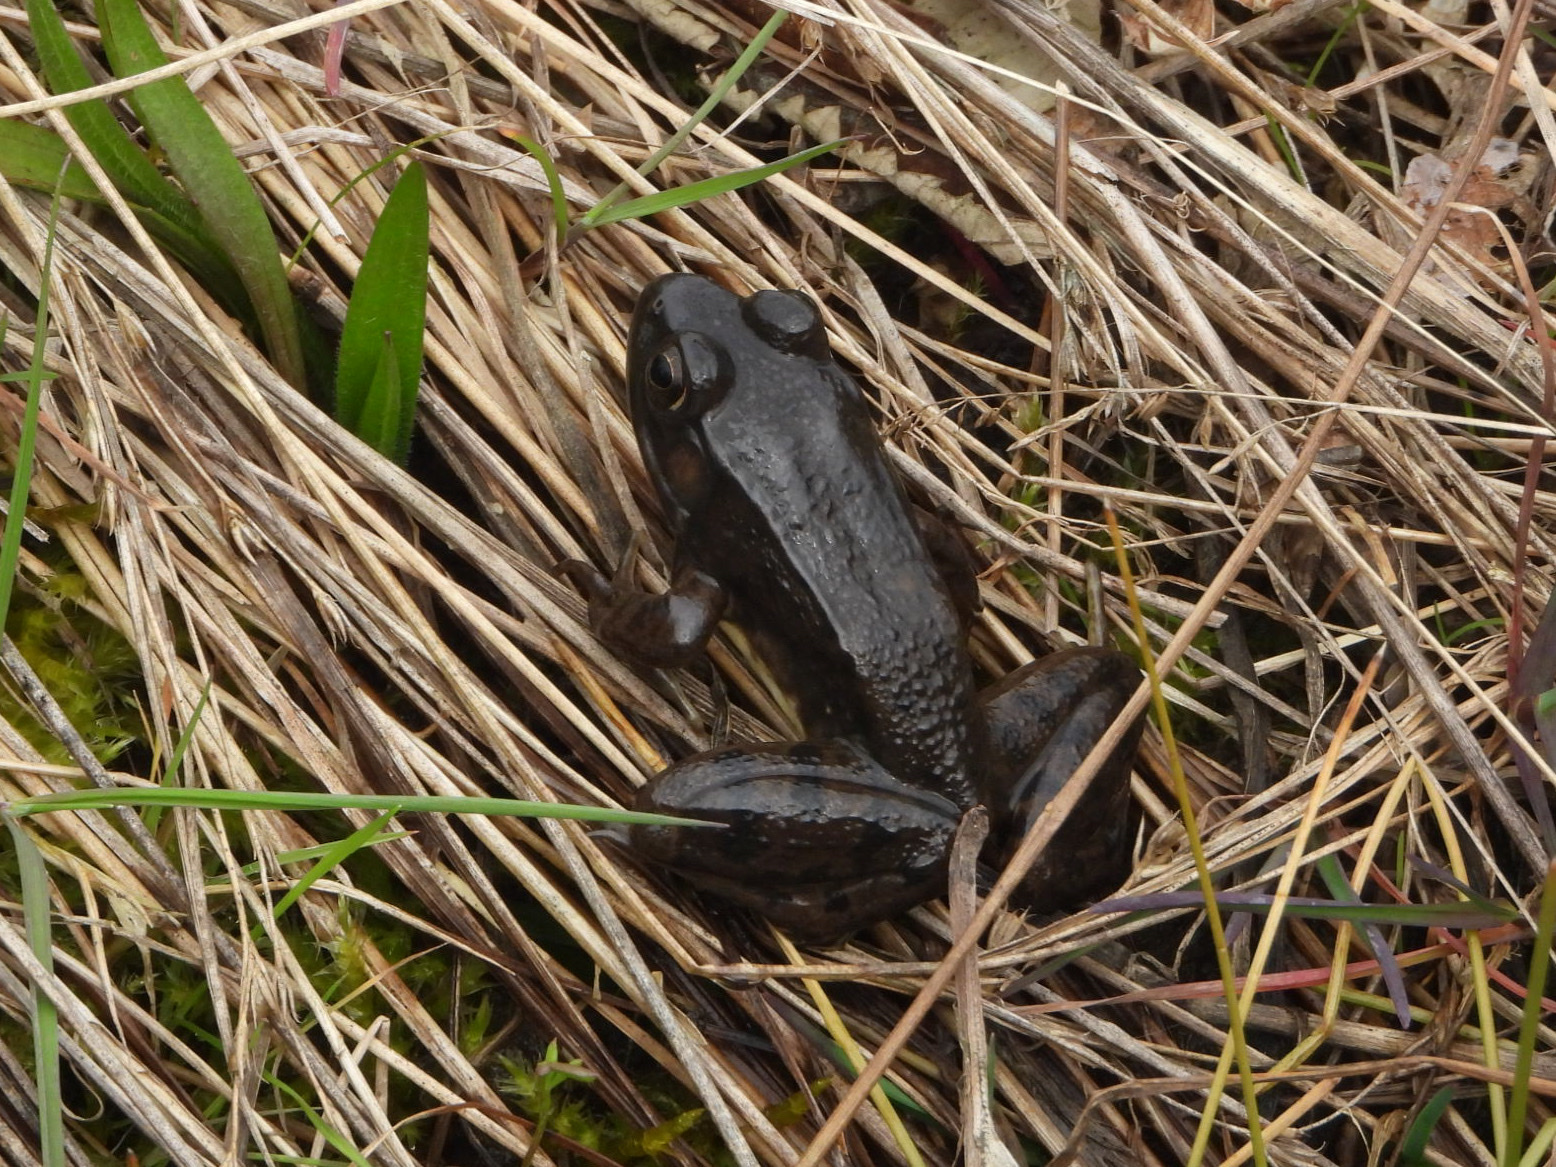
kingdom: Animalia
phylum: Chordata
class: Amphibia
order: Anura
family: Ranidae
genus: Lithobates
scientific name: Lithobates clamitans
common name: Green frog
